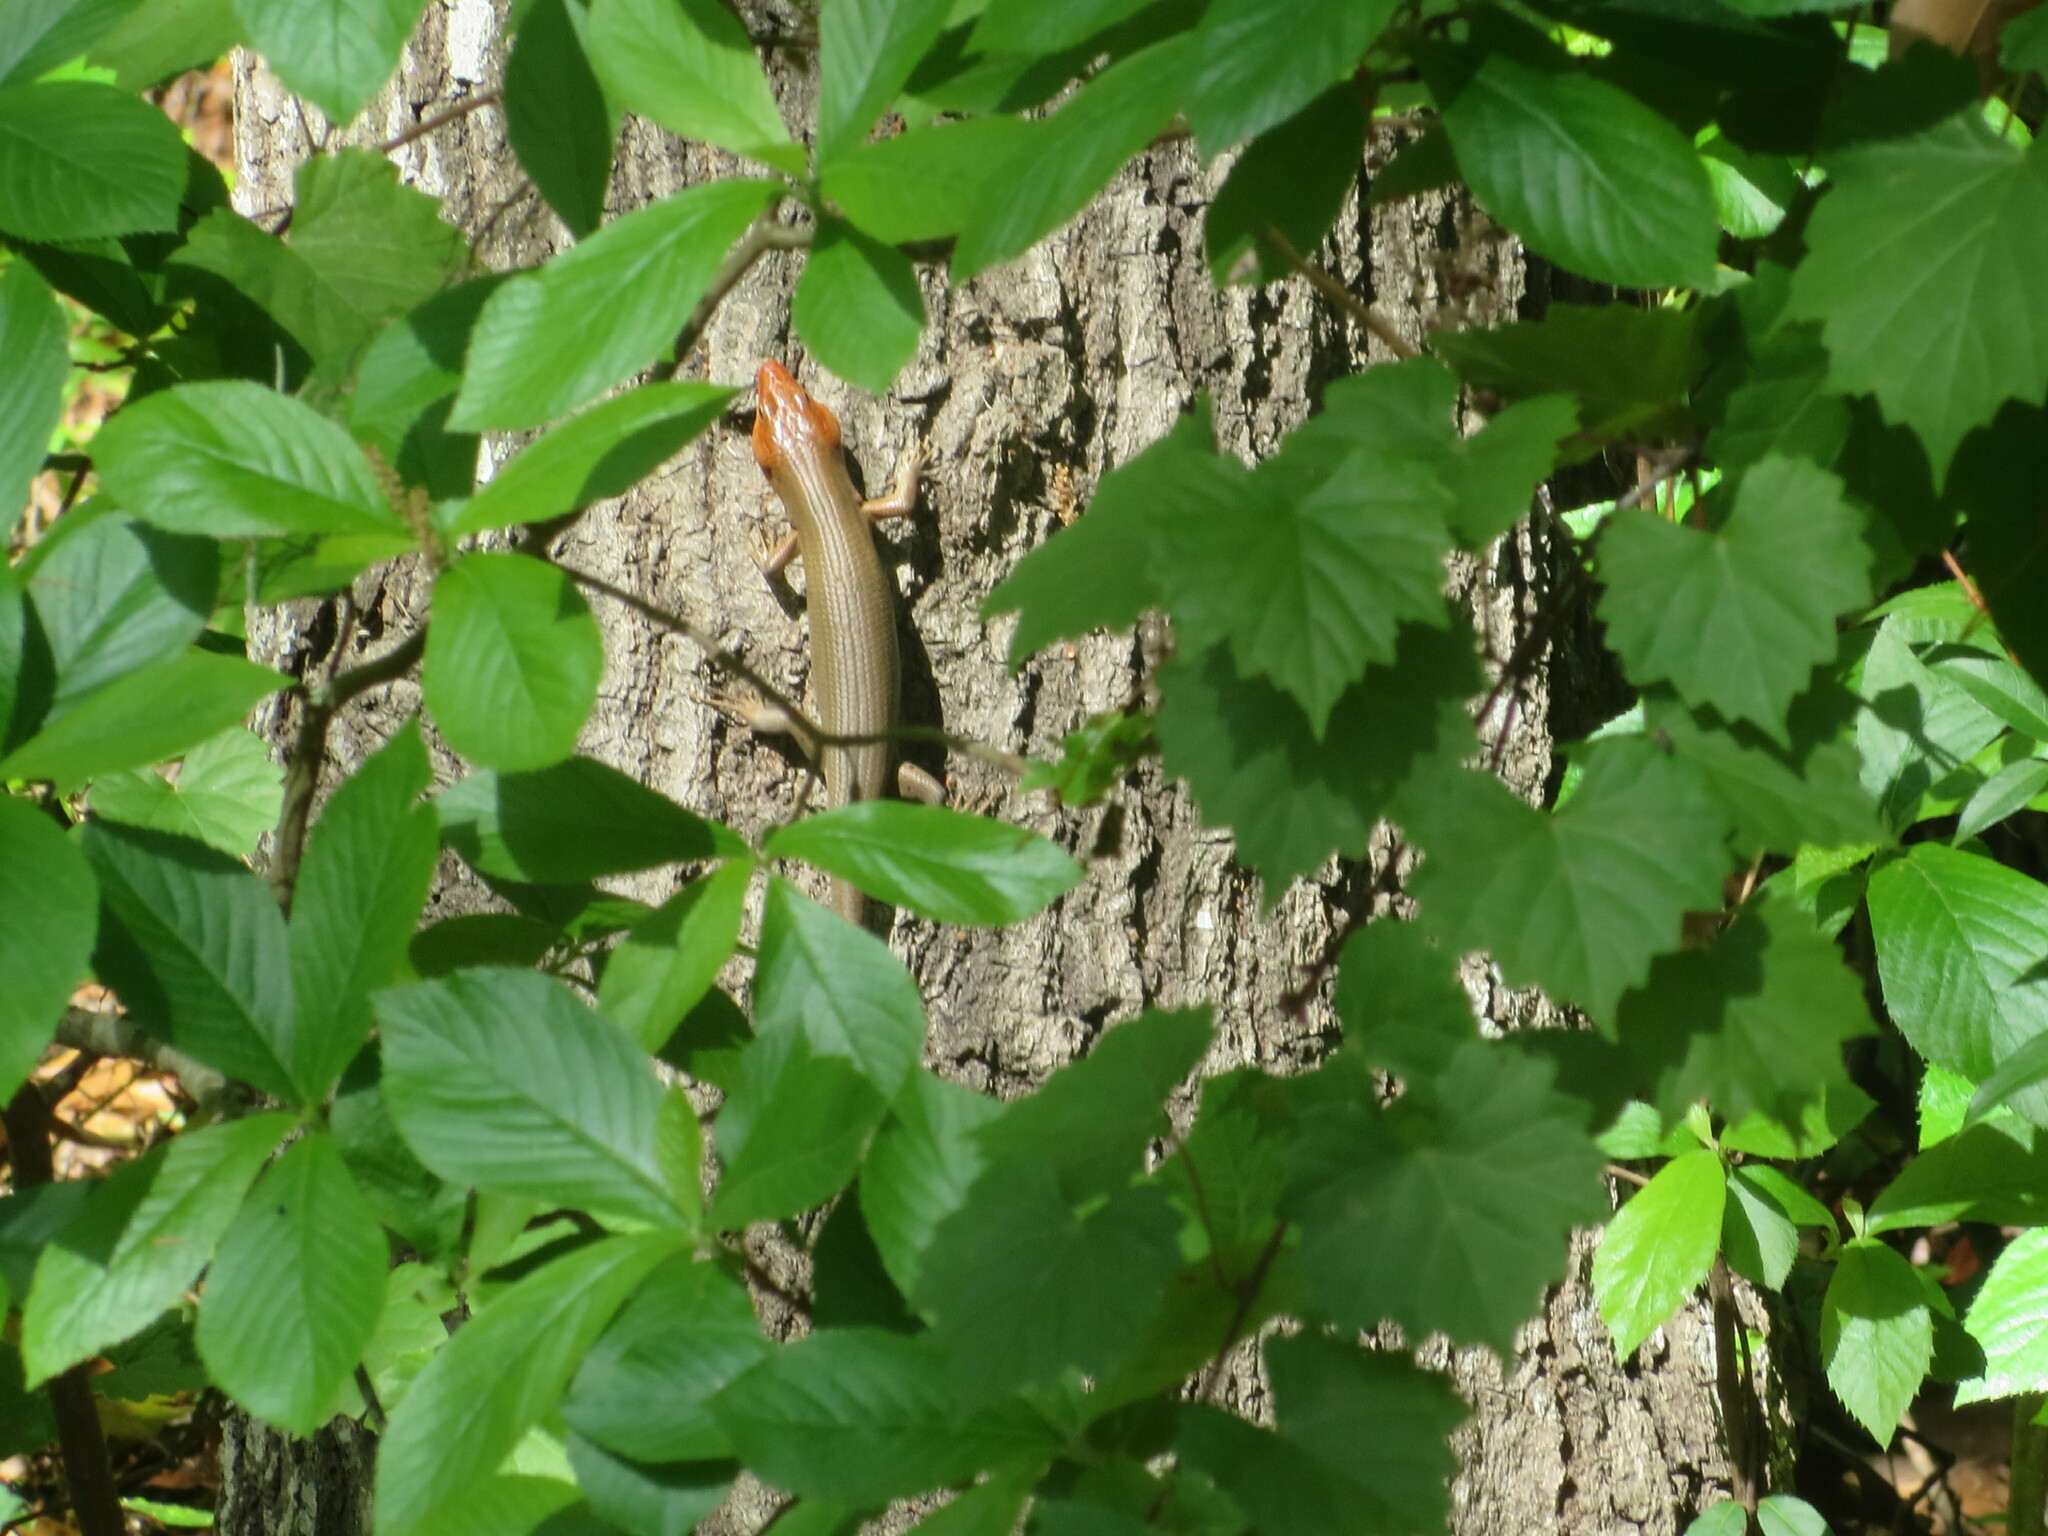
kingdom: Plantae
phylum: Tracheophyta
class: Magnoliopsida
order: Vitales
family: Vitaceae
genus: Vitis
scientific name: Vitis rotundifolia
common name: Muscadine grape
